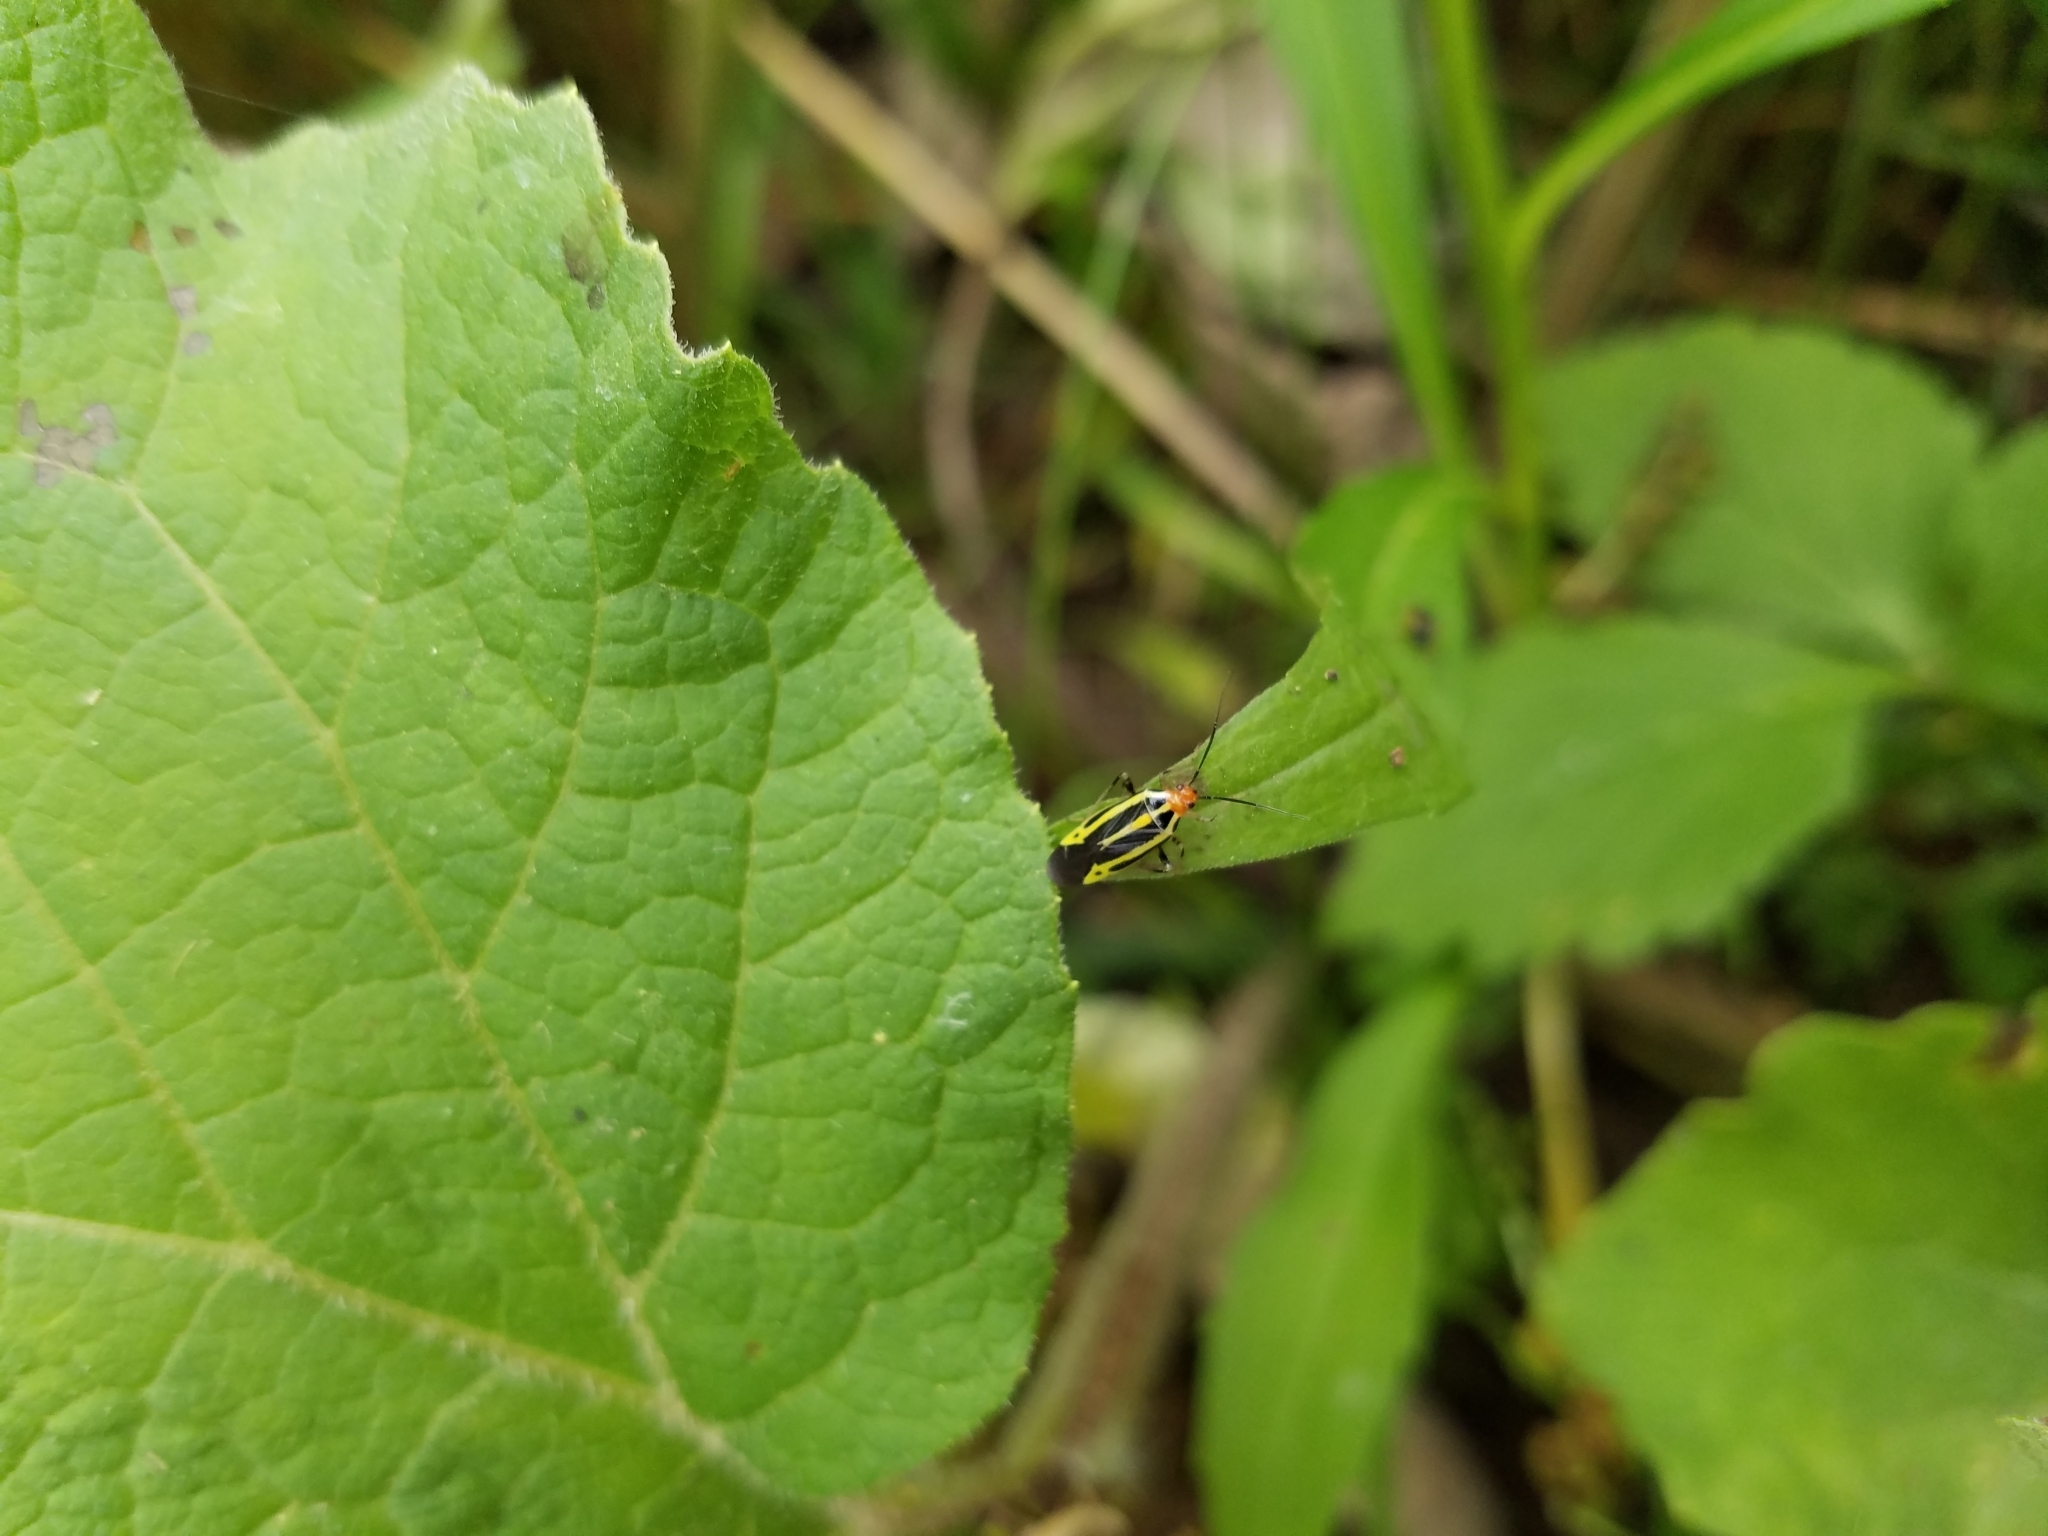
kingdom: Animalia
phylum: Arthropoda
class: Insecta
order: Hemiptera
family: Miridae
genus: Poecilocapsus
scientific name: Poecilocapsus lineatus
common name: Four-lined plant bug
